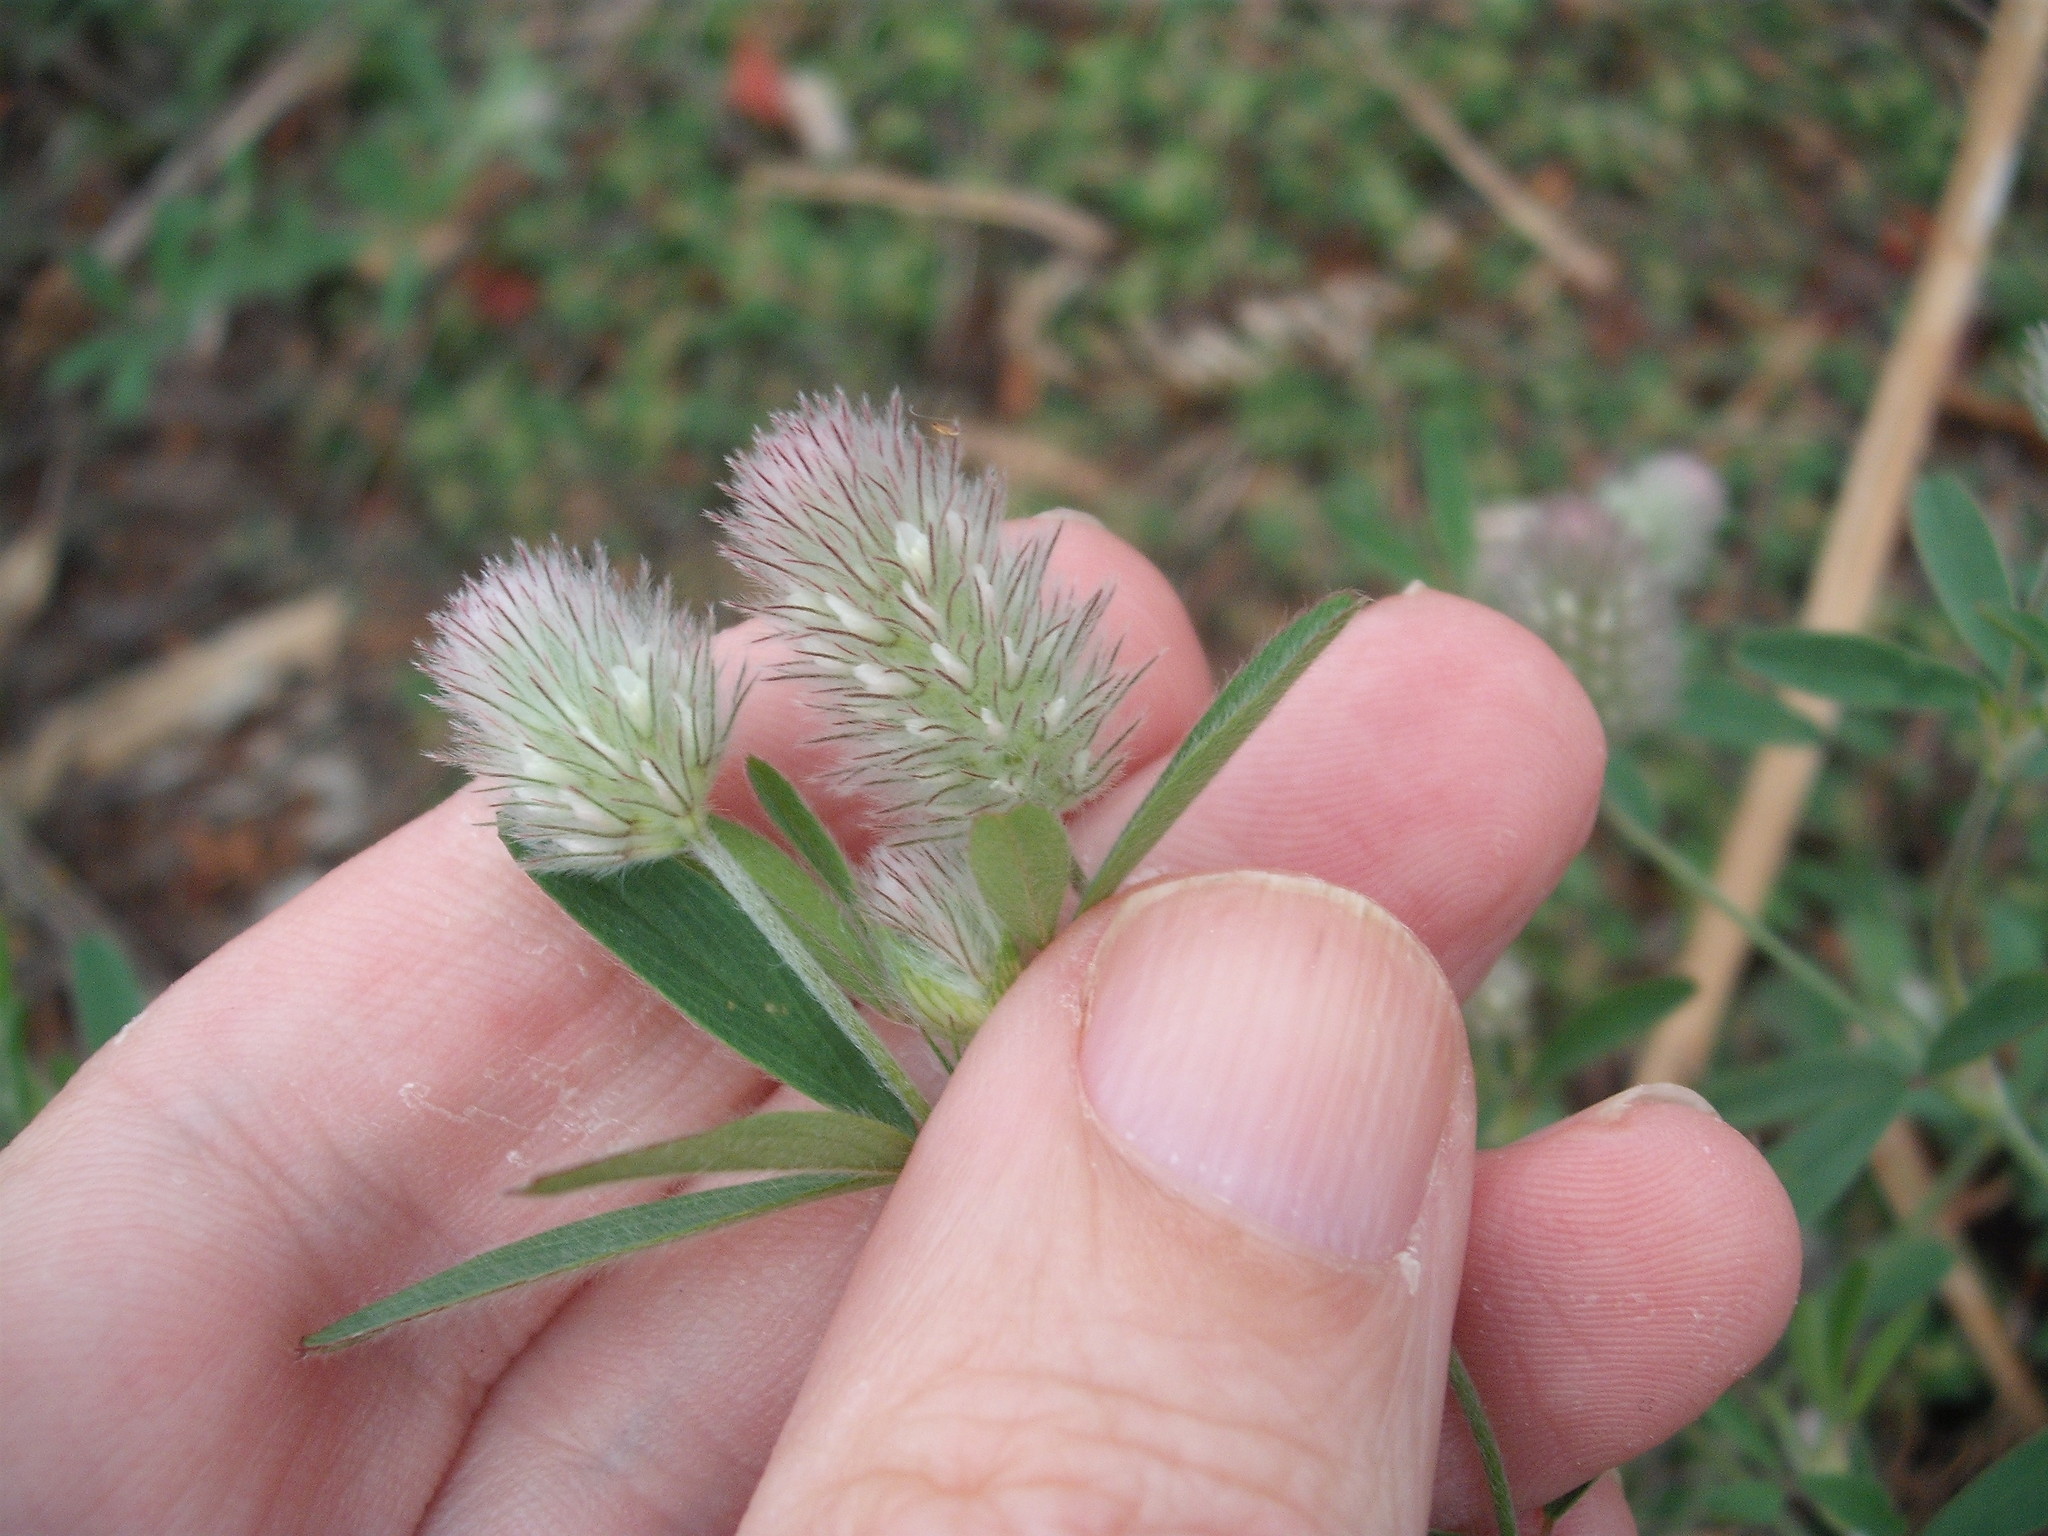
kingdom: Plantae
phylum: Tracheophyta
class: Magnoliopsida
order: Fabales
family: Fabaceae
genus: Trifolium
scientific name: Trifolium arvense
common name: Hare's-foot clover
